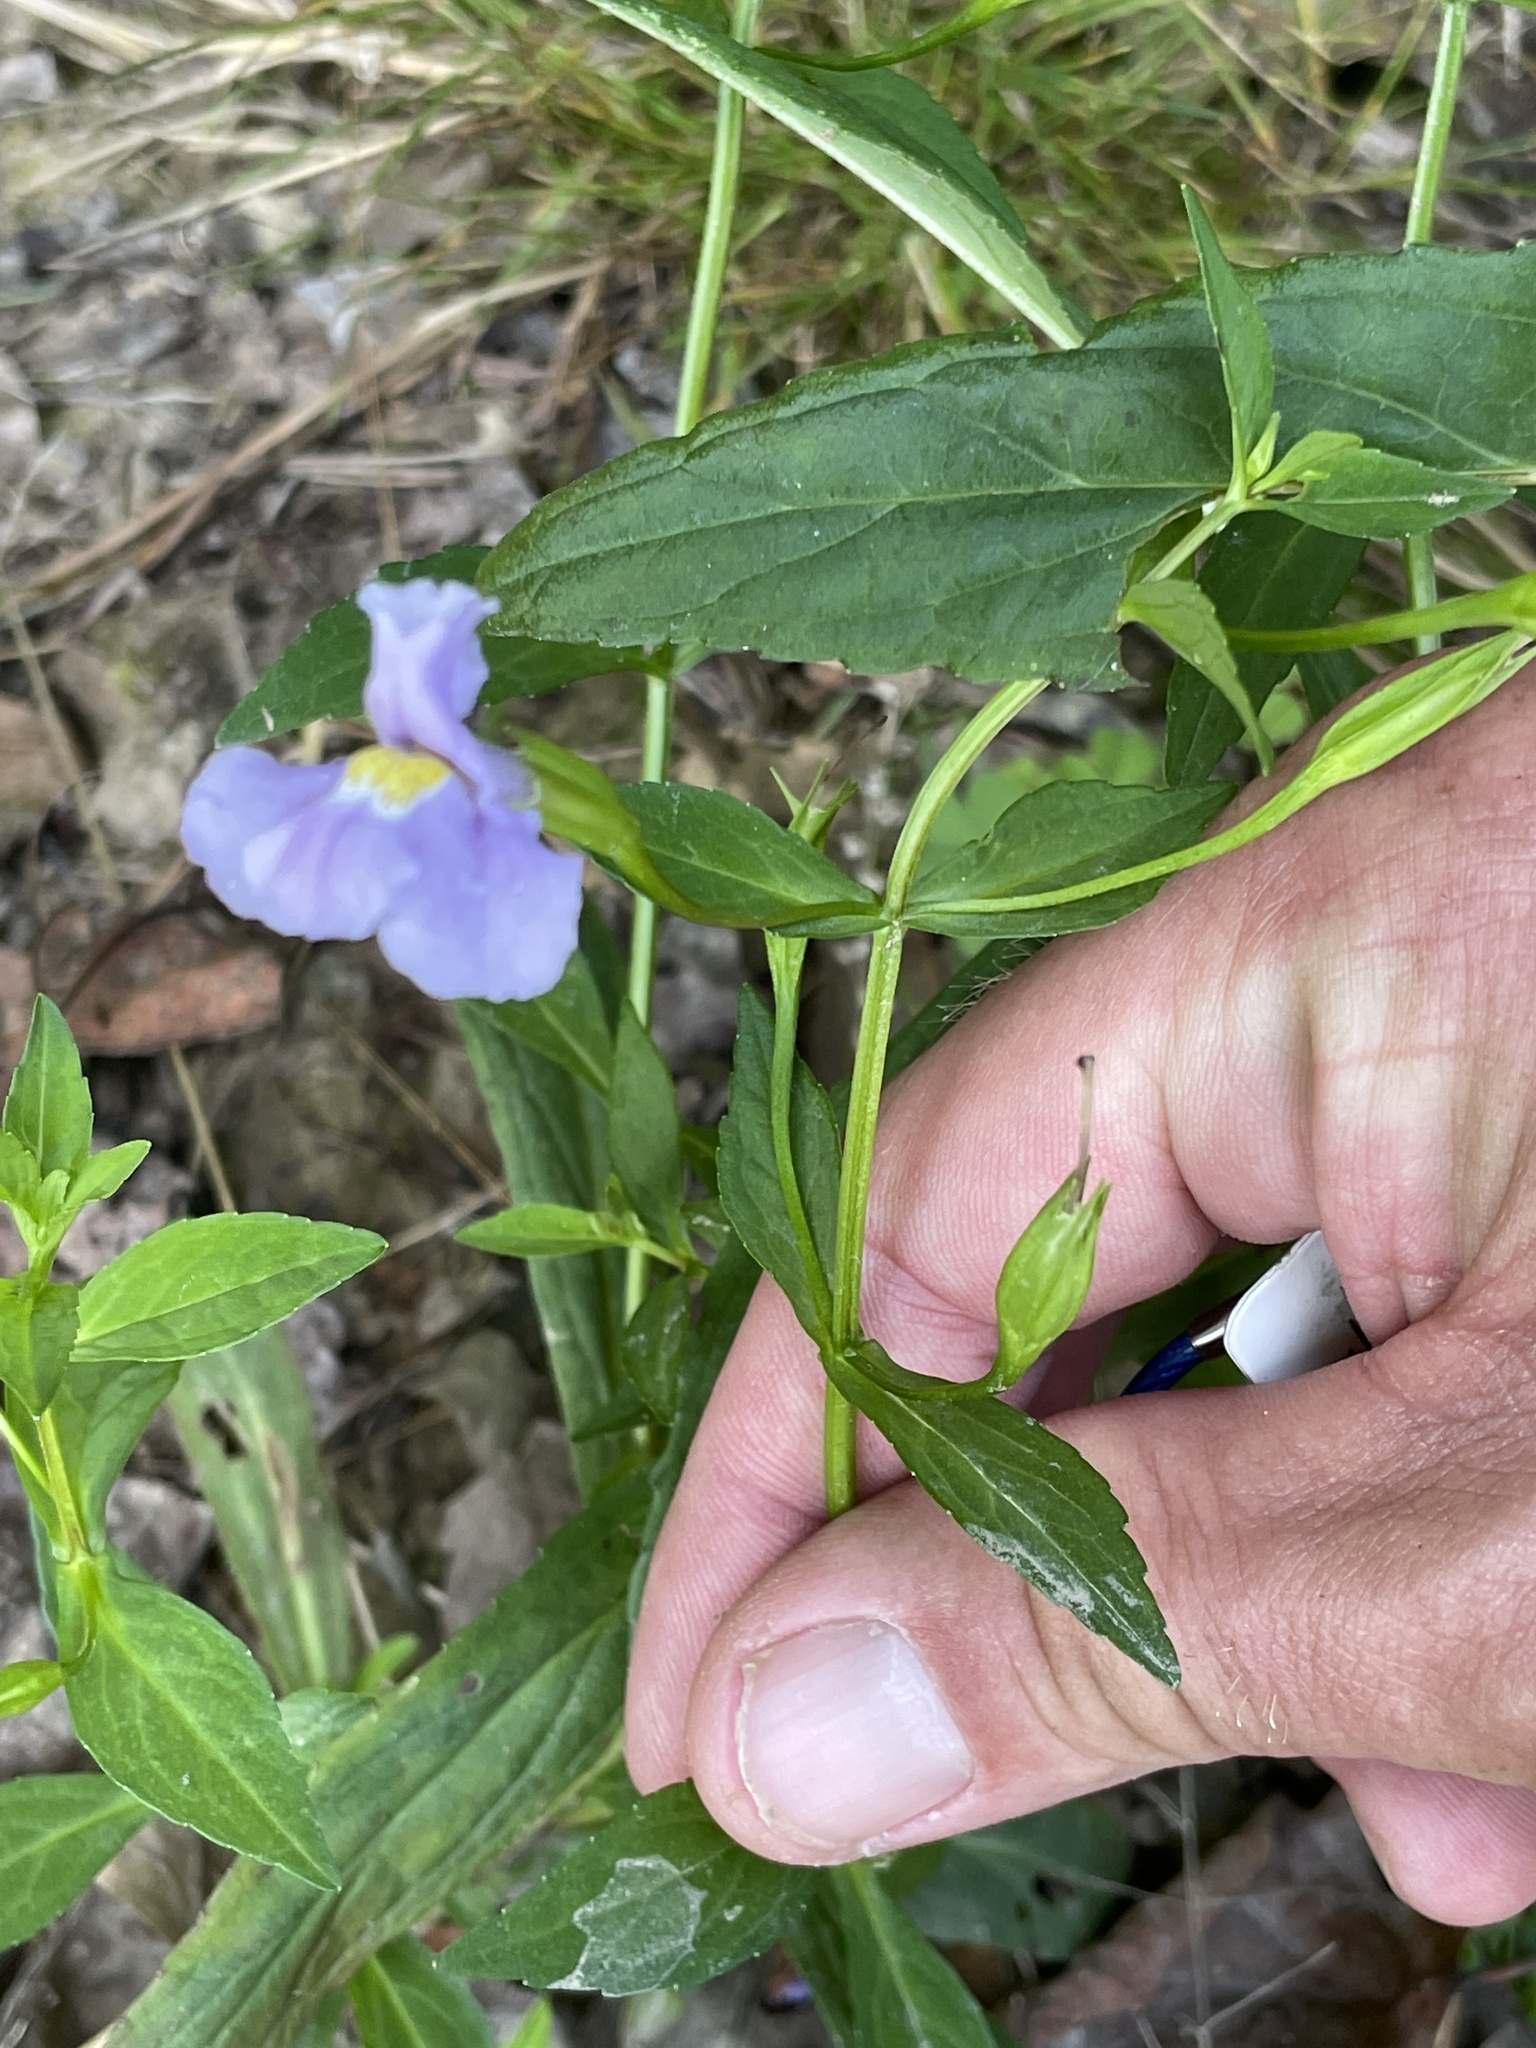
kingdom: Plantae
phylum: Tracheophyta
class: Magnoliopsida
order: Lamiales
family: Phrymaceae
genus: Mimulus
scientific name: Mimulus ringens
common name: Allegheny monkeyflower
